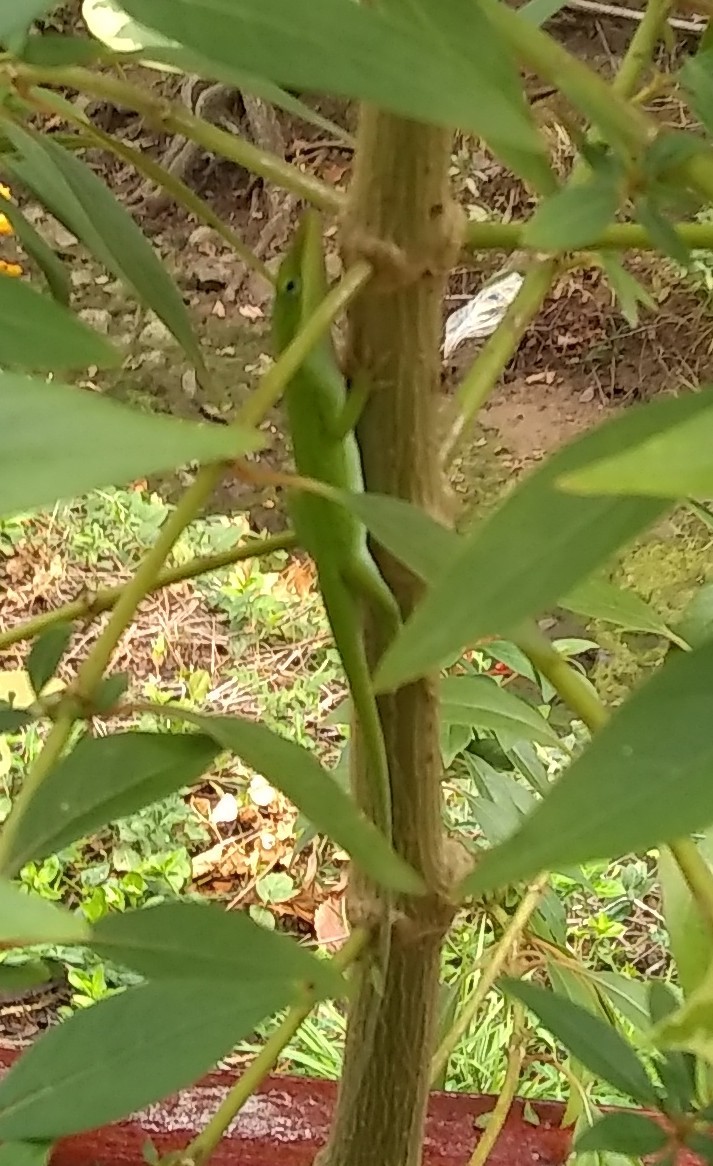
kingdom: Animalia
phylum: Chordata
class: Squamata
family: Dactyloidae
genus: Anolis
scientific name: Anolis carolinensis
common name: Green anole
